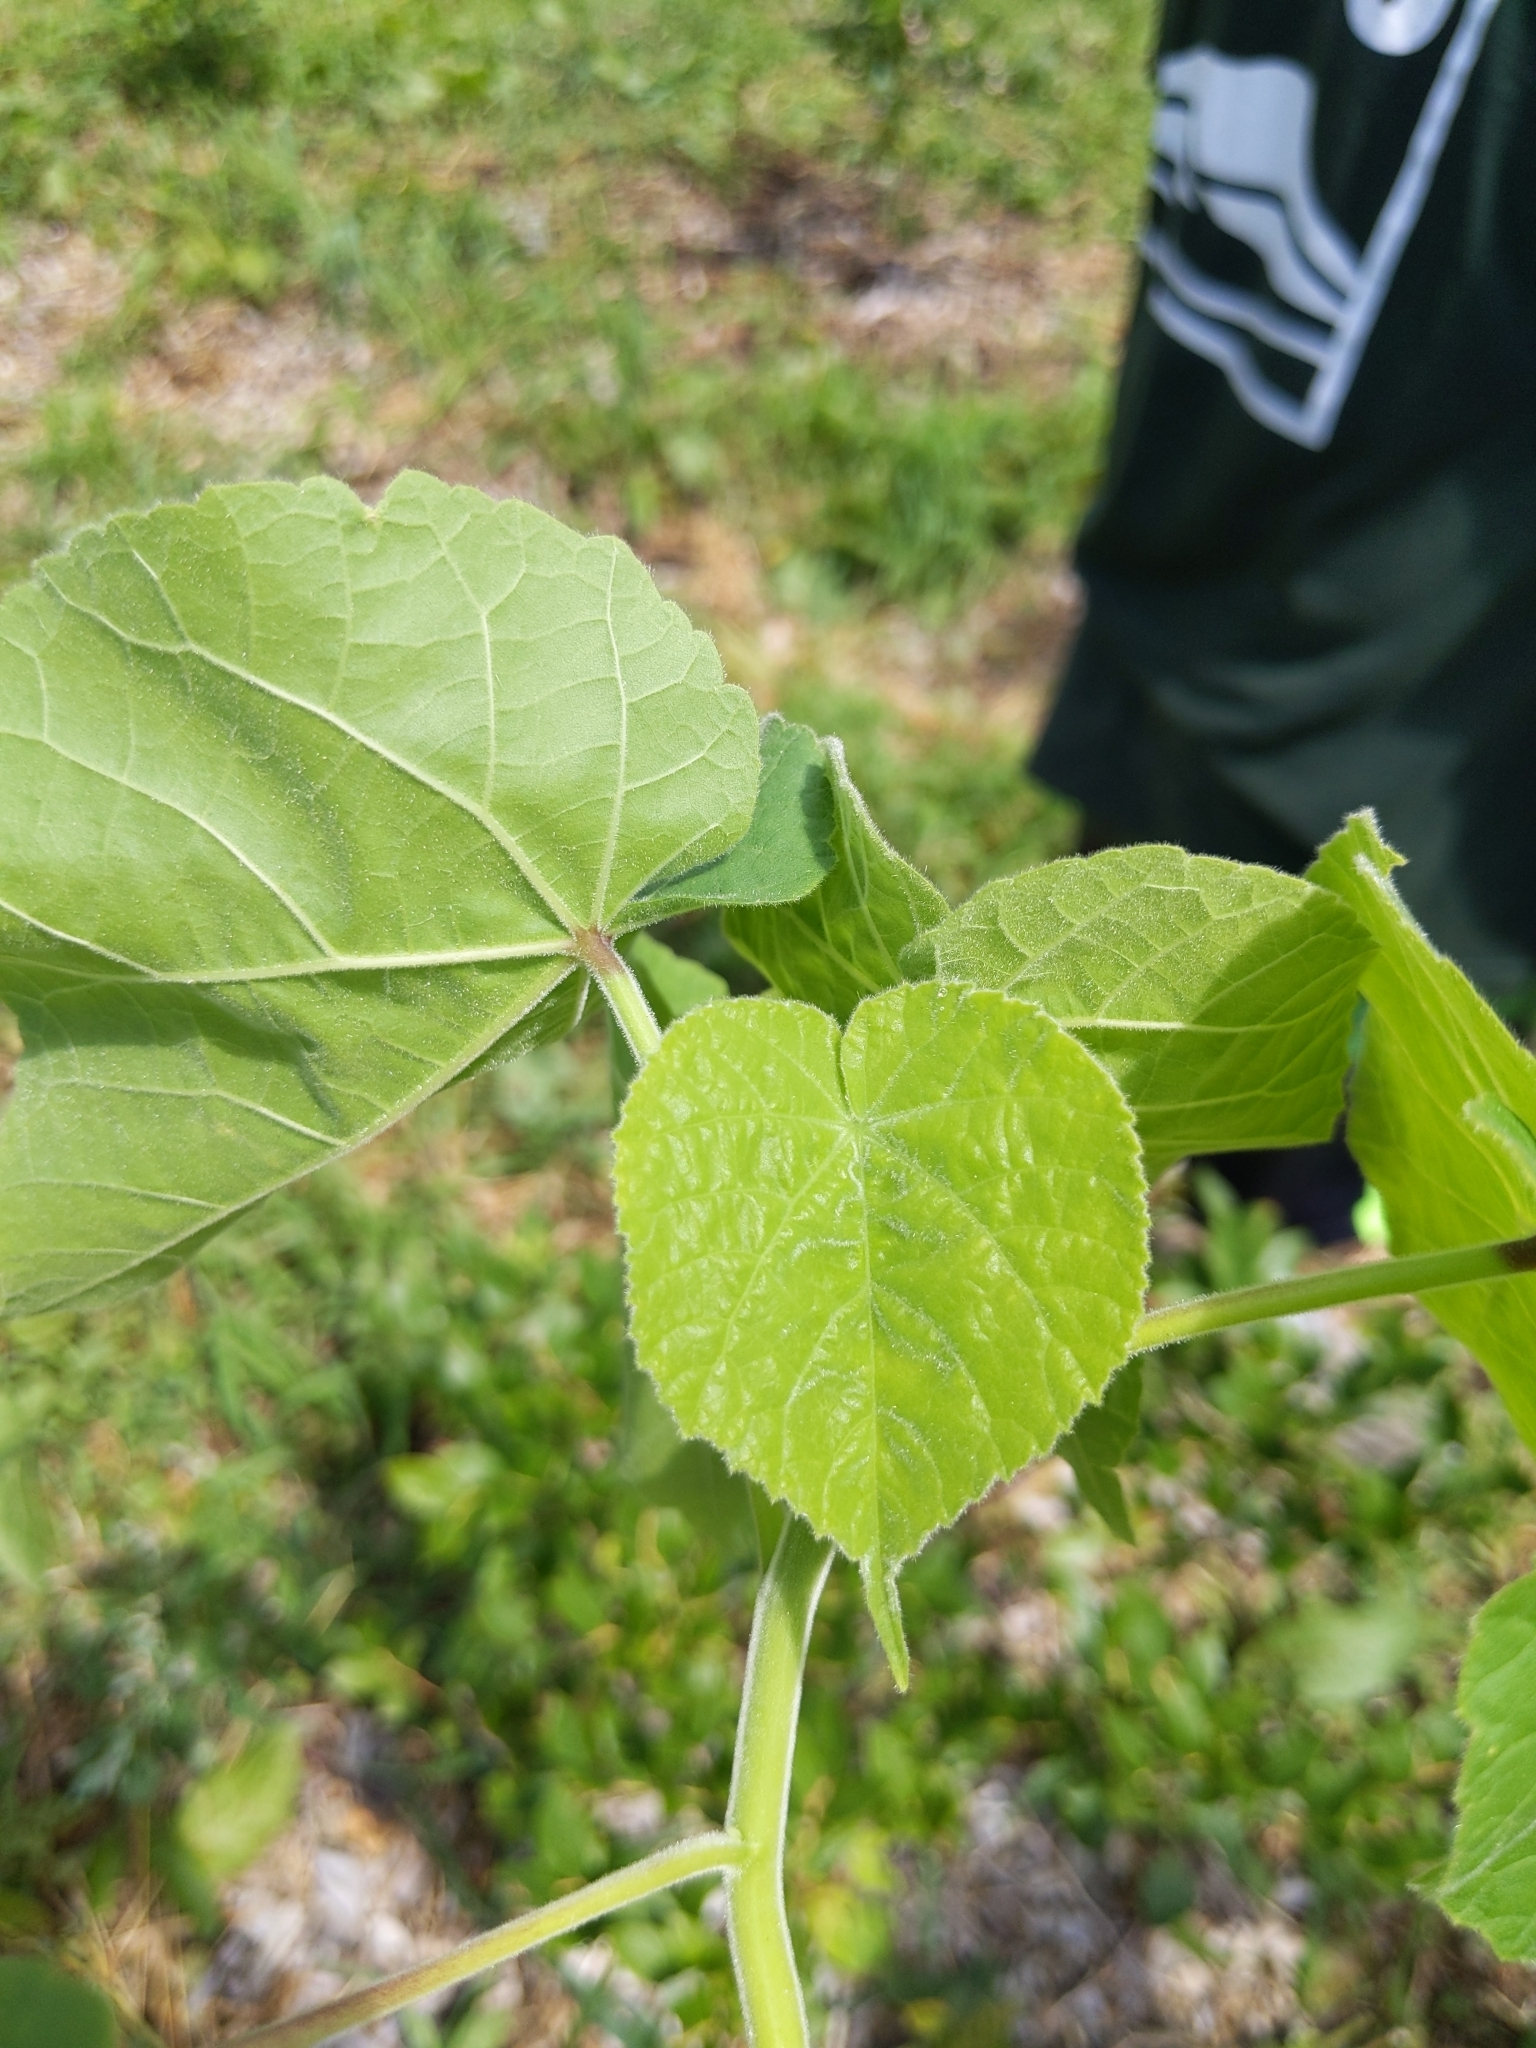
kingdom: Plantae
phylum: Tracheophyta
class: Magnoliopsida
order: Malvales
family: Malvaceae
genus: Abutilon
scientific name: Abutilon theophrasti
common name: Velvetleaf
